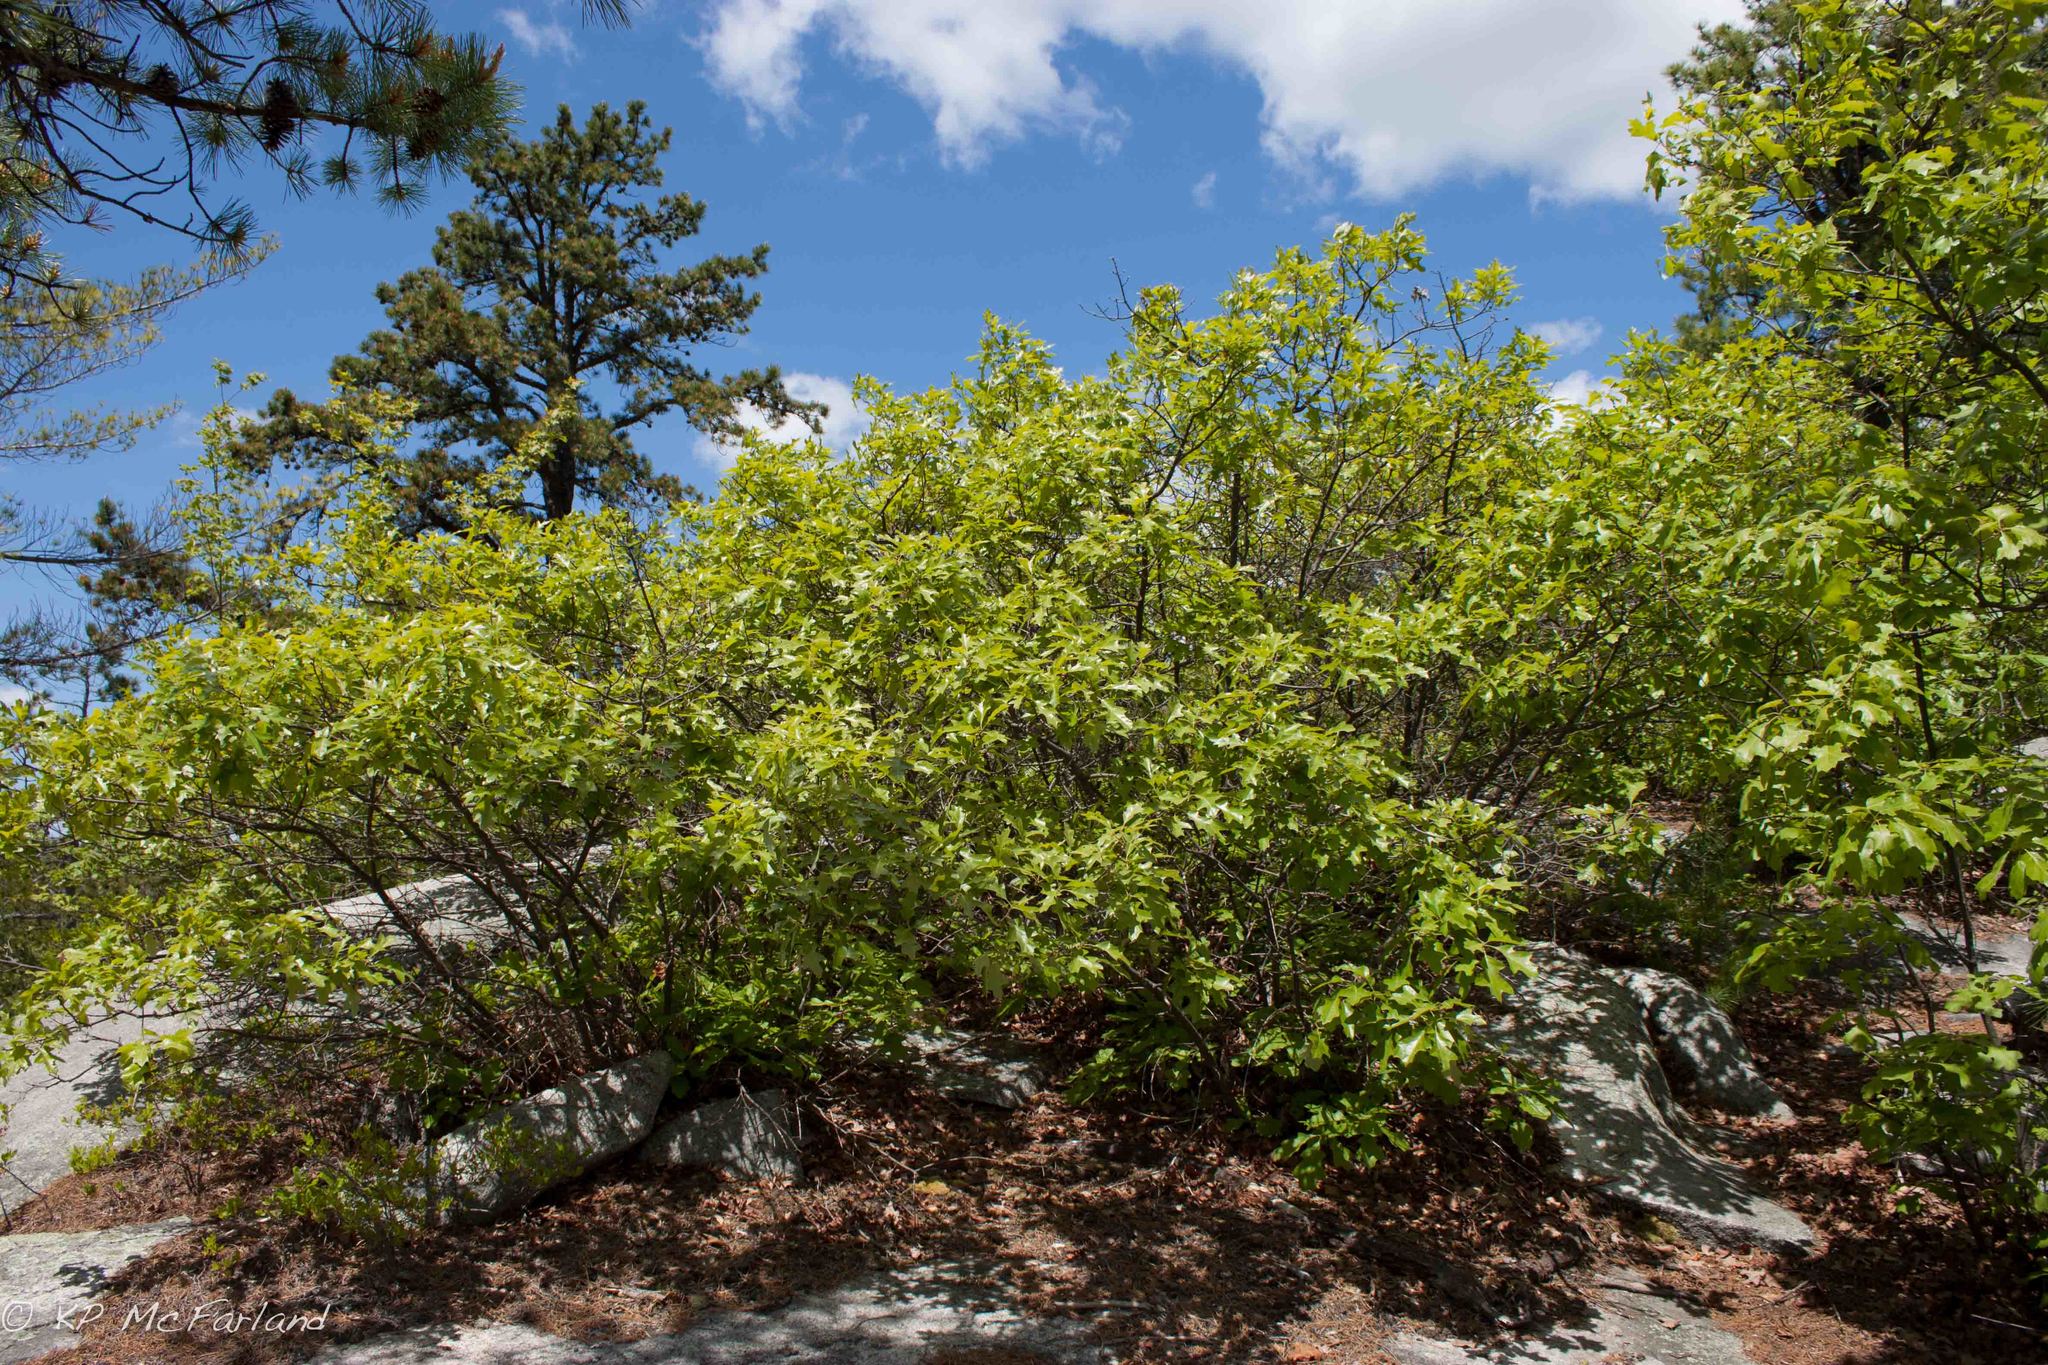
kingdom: Plantae
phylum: Tracheophyta
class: Magnoliopsida
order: Fagales
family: Fagaceae
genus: Quercus
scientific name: Quercus ilicifolia
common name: Bear oak
